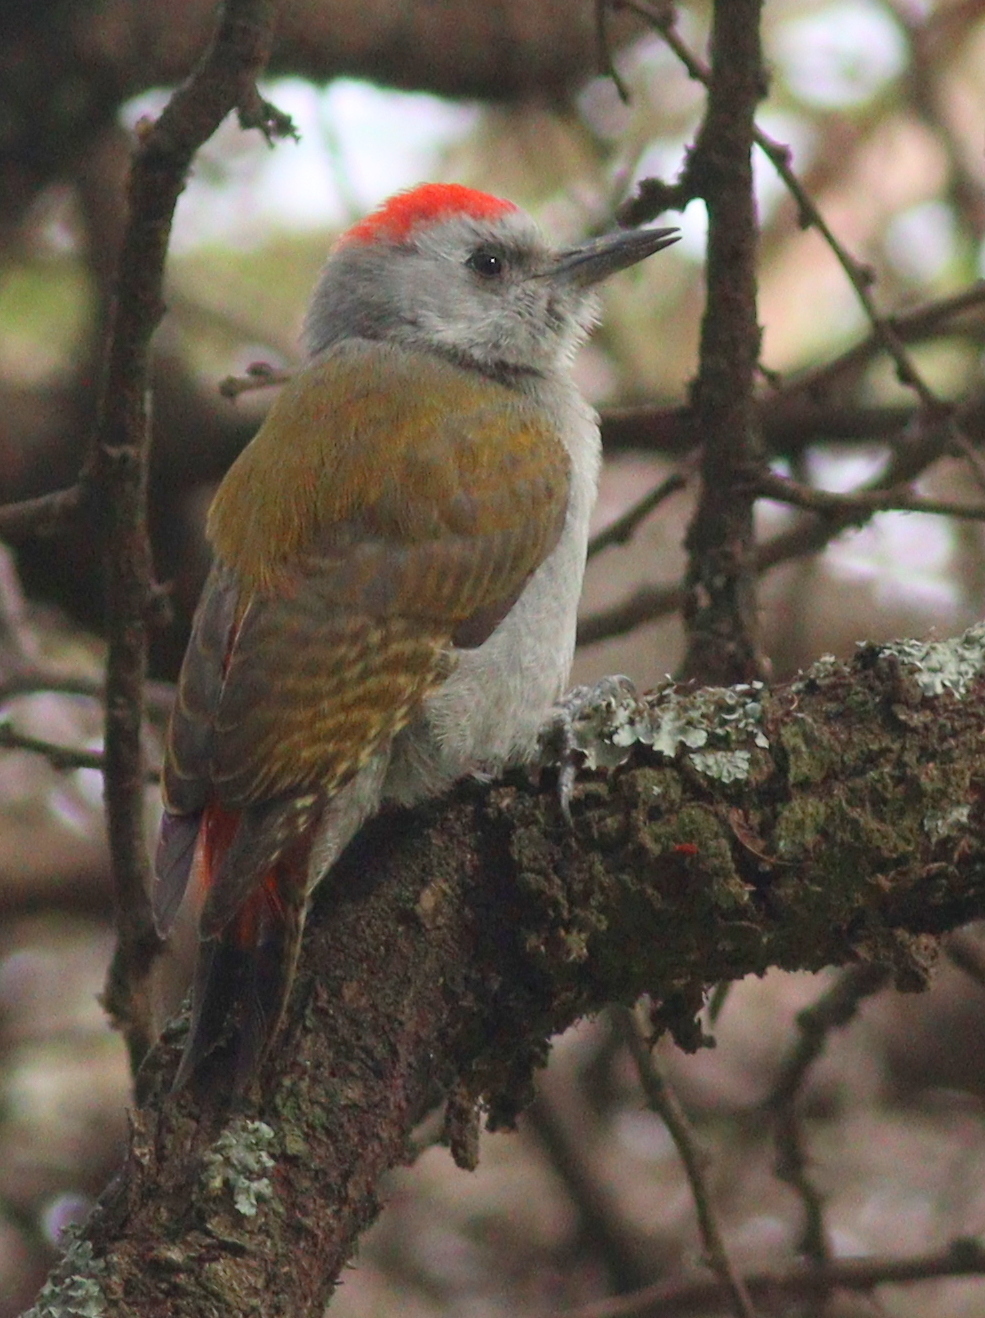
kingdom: Animalia
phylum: Chordata
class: Aves
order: Piciformes
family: Picidae
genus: Dendropicos
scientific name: Dendropicos spodocephalus
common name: Eastern grey woodpecker
